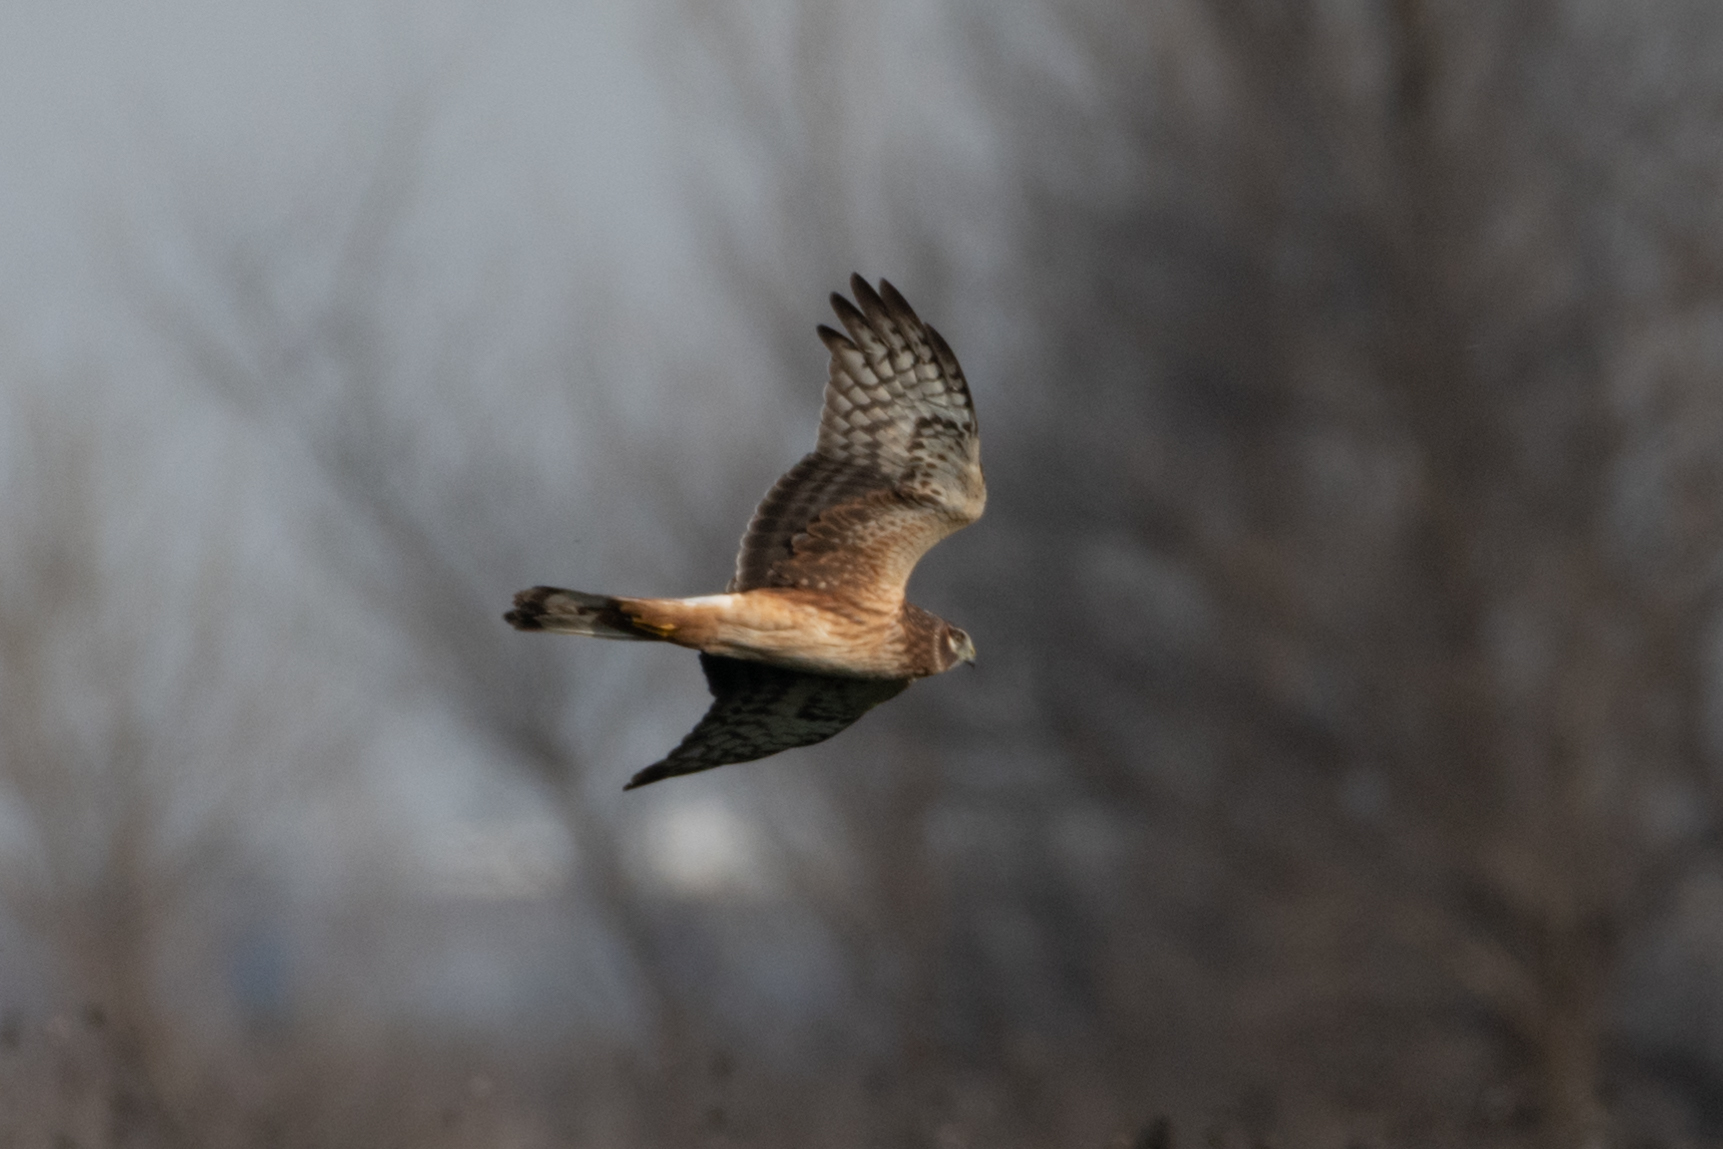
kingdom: Animalia
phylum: Chordata
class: Aves
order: Accipitriformes
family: Accipitridae
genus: Circus
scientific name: Circus cyaneus
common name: Hen harrier
